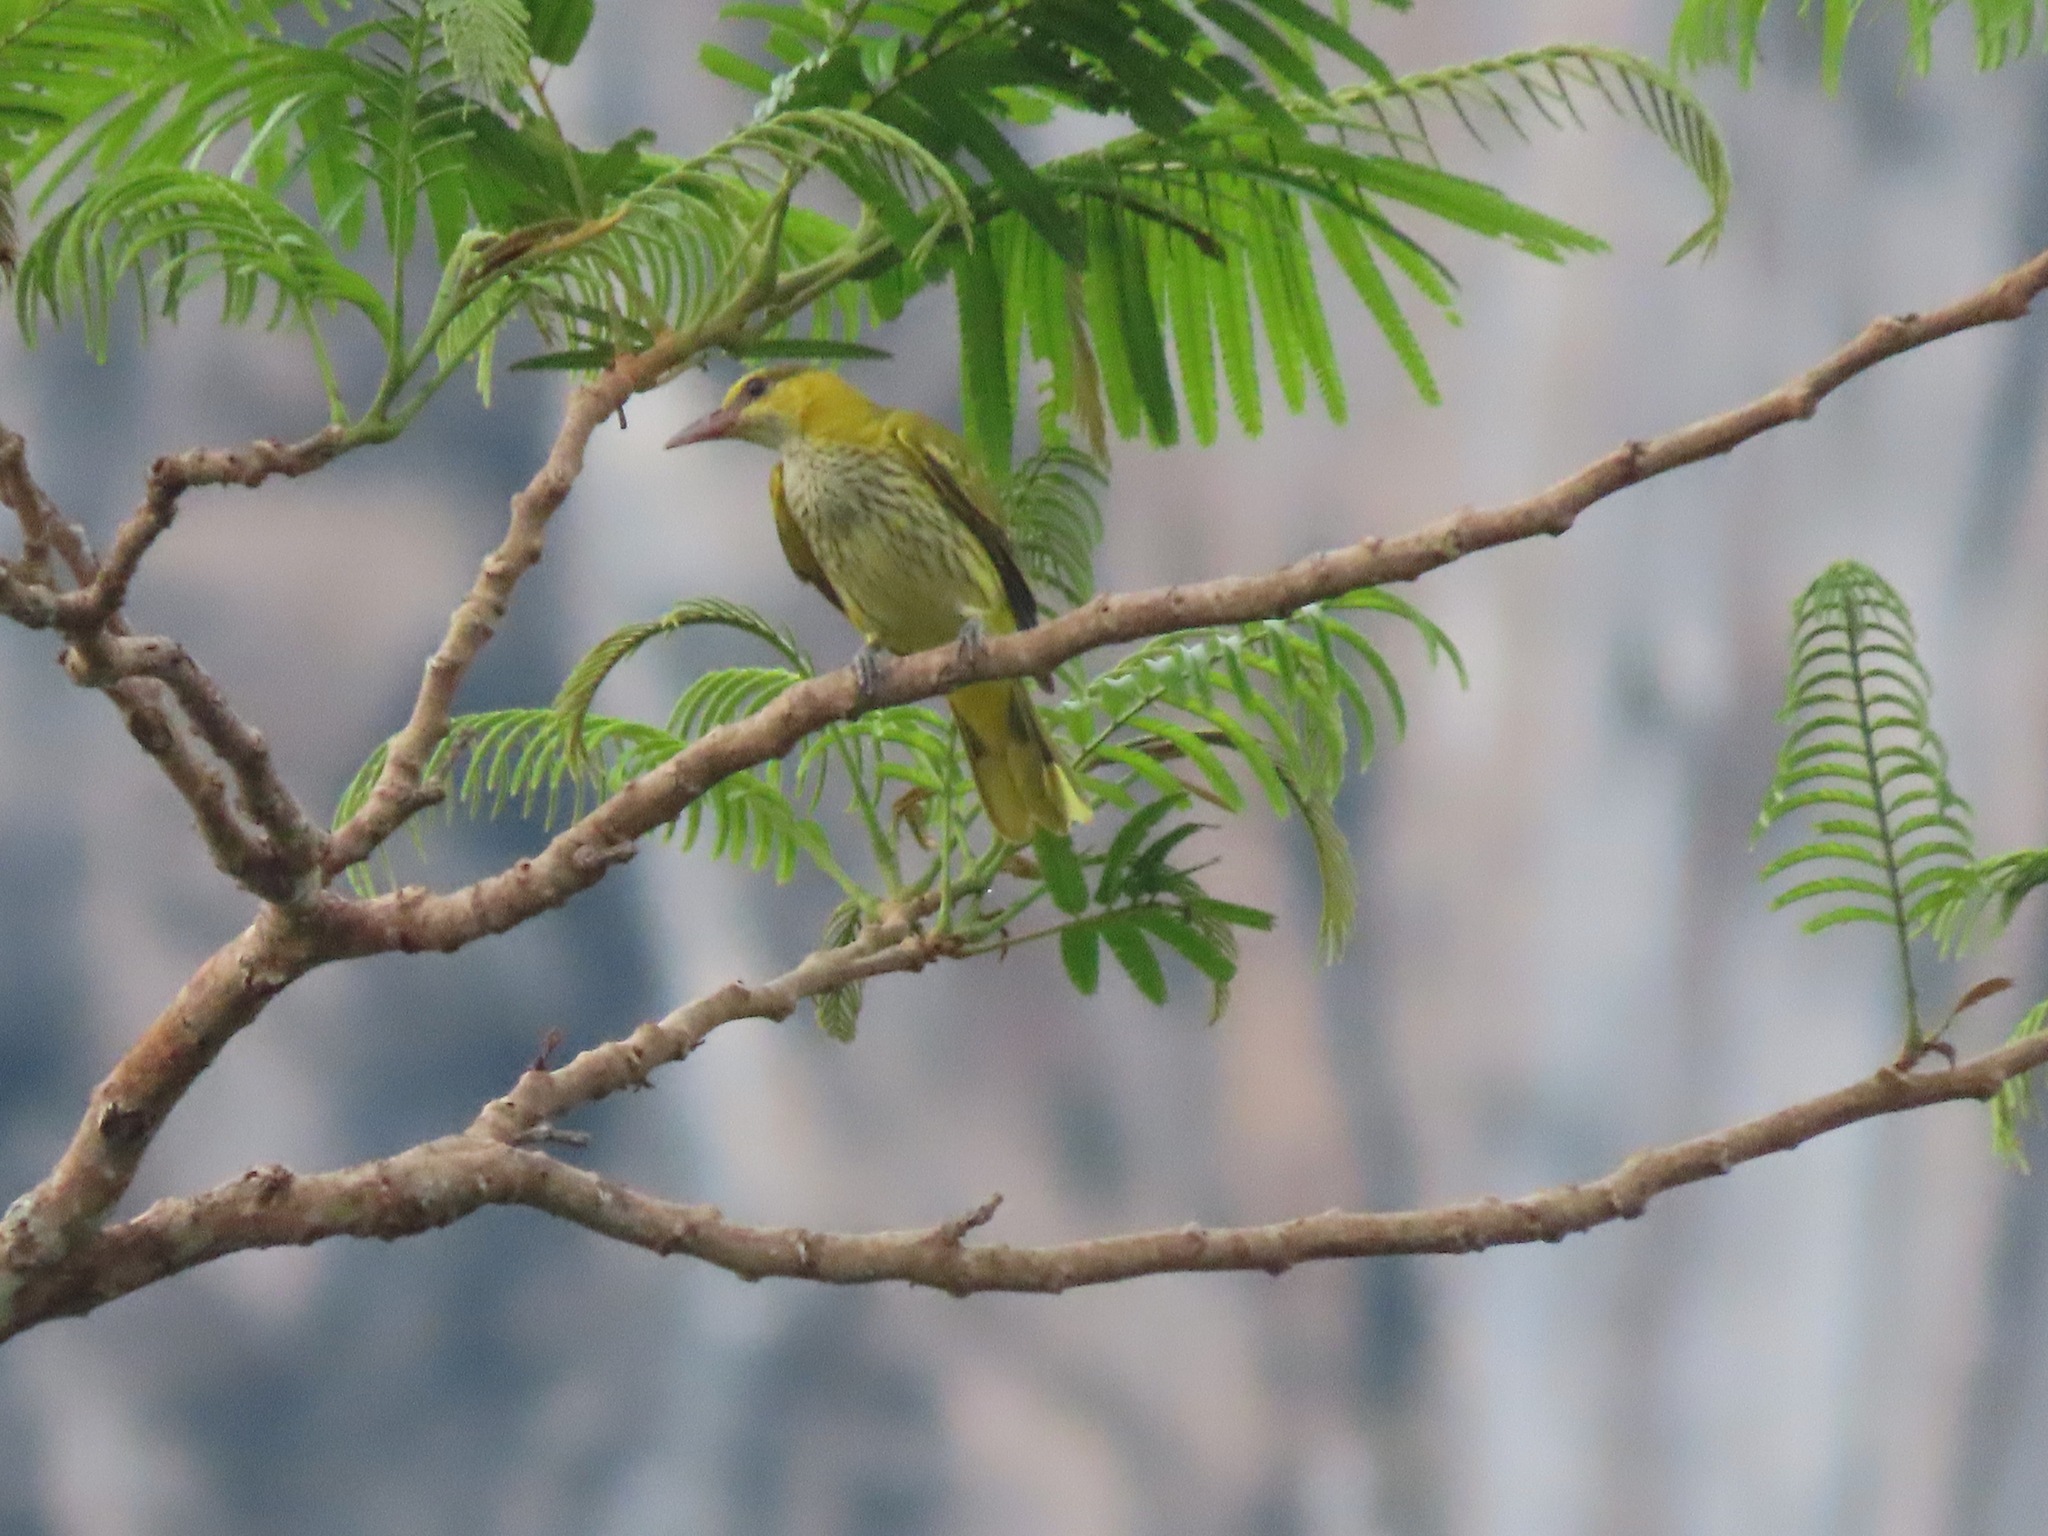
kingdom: Animalia
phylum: Chordata
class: Aves
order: Passeriformes
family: Oriolidae
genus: Oriolus
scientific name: Oriolus chinensis
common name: Black-naped oriole
